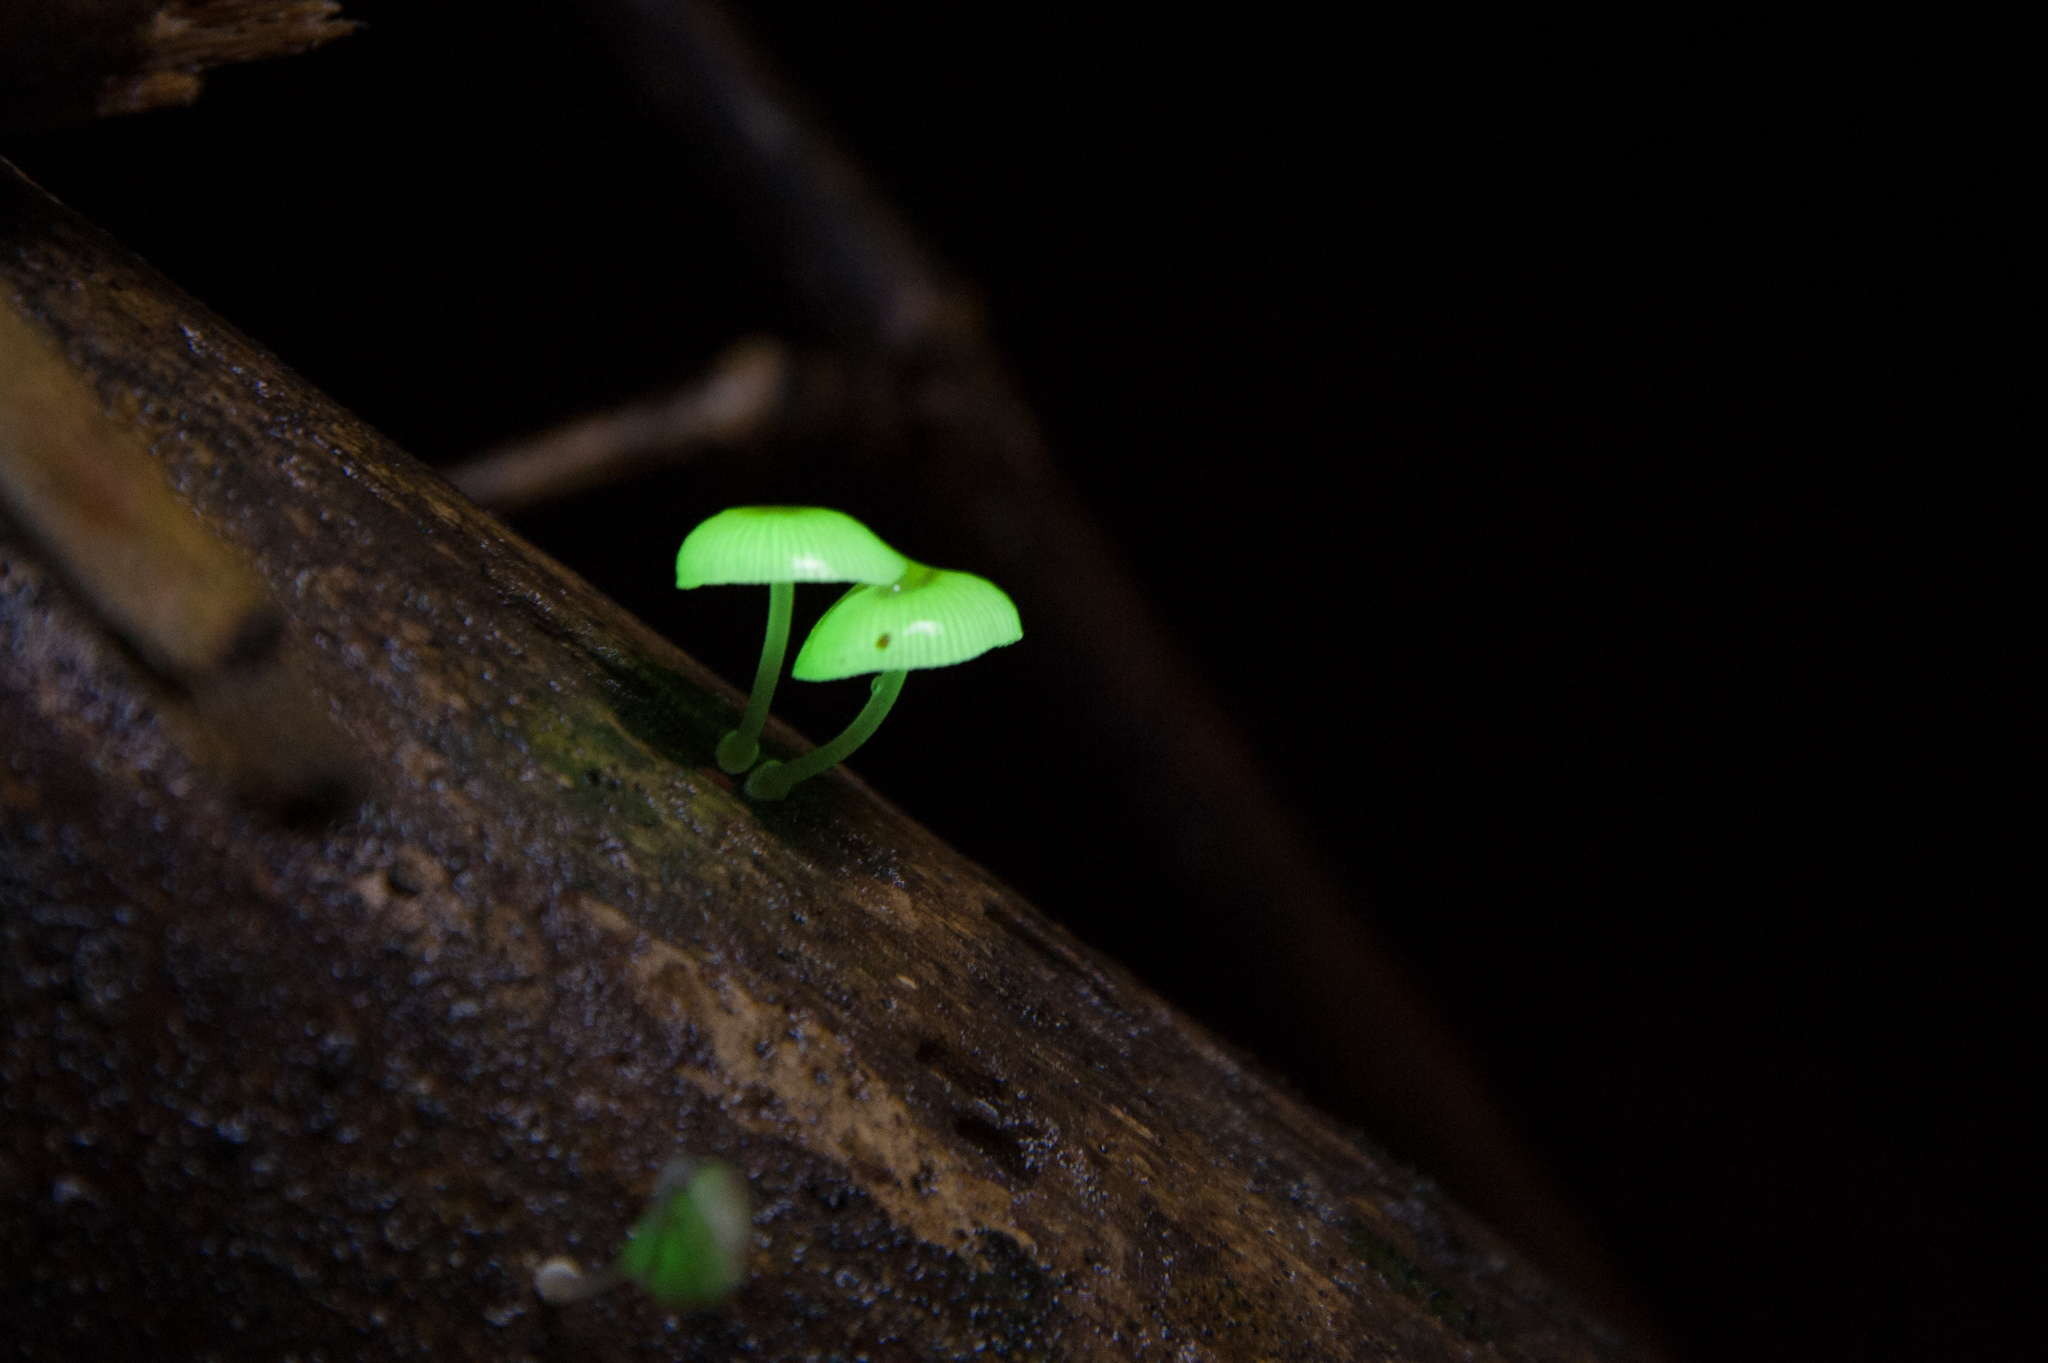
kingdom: Fungi
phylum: Basidiomycota
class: Agaricomycetes
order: Agaricales
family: Mycenaceae
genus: Mycena
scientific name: Mycena chlorophos
